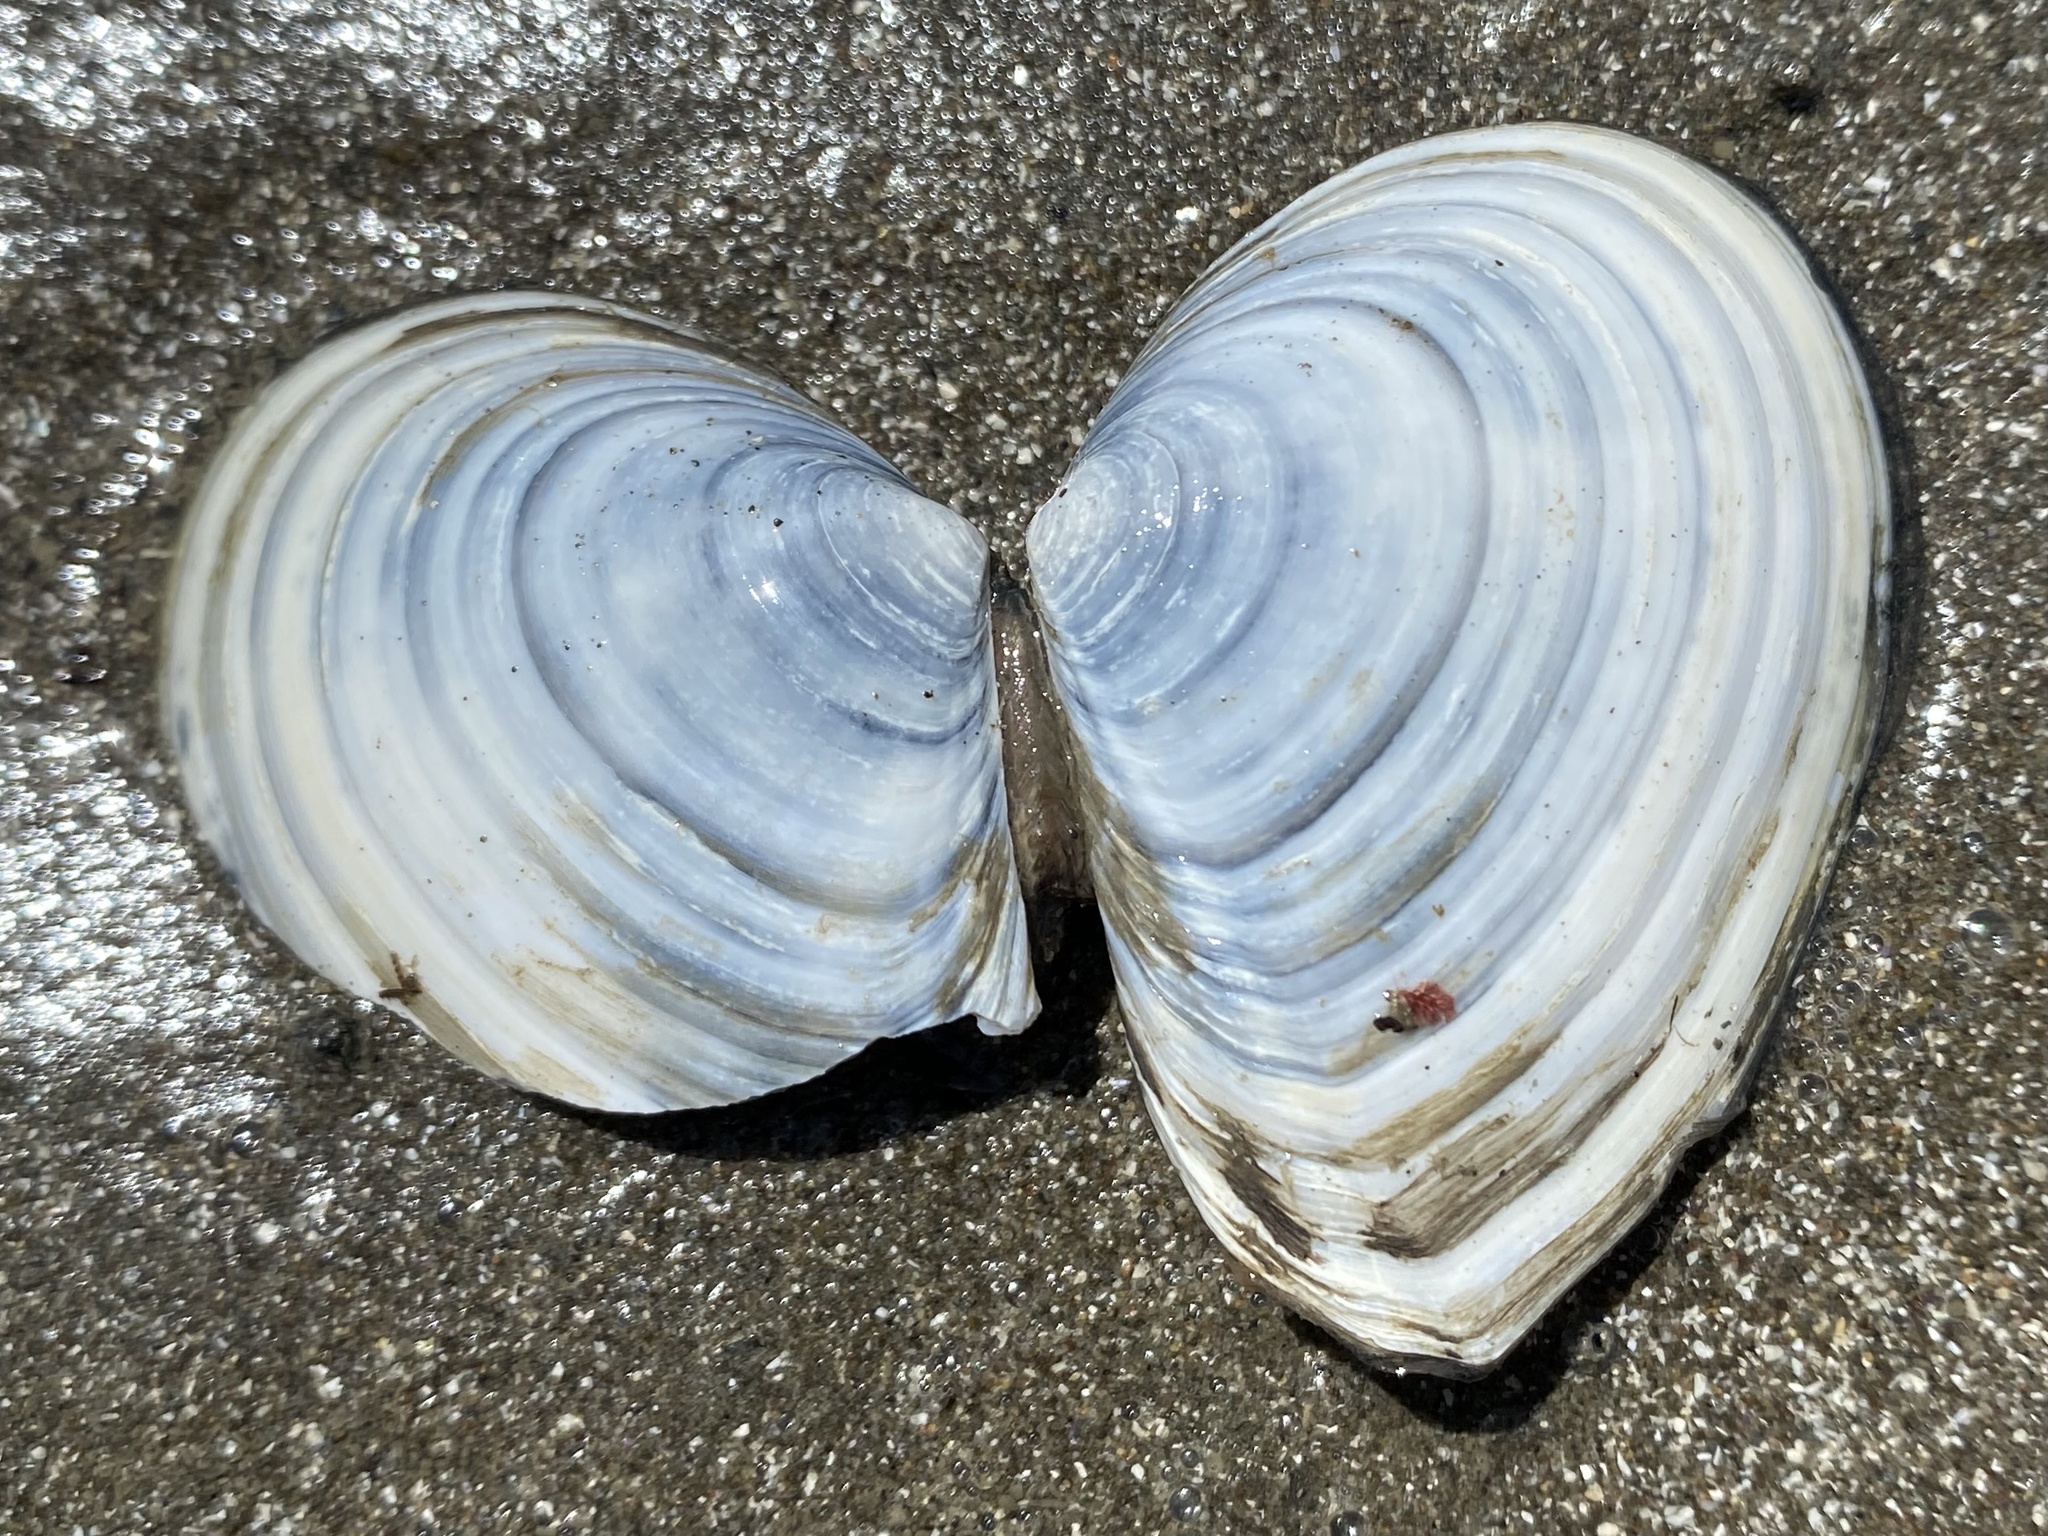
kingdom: Animalia
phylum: Mollusca
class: Bivalvia
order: Cardiida
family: Tellinidae
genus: Macoma
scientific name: Macoma nasuta
